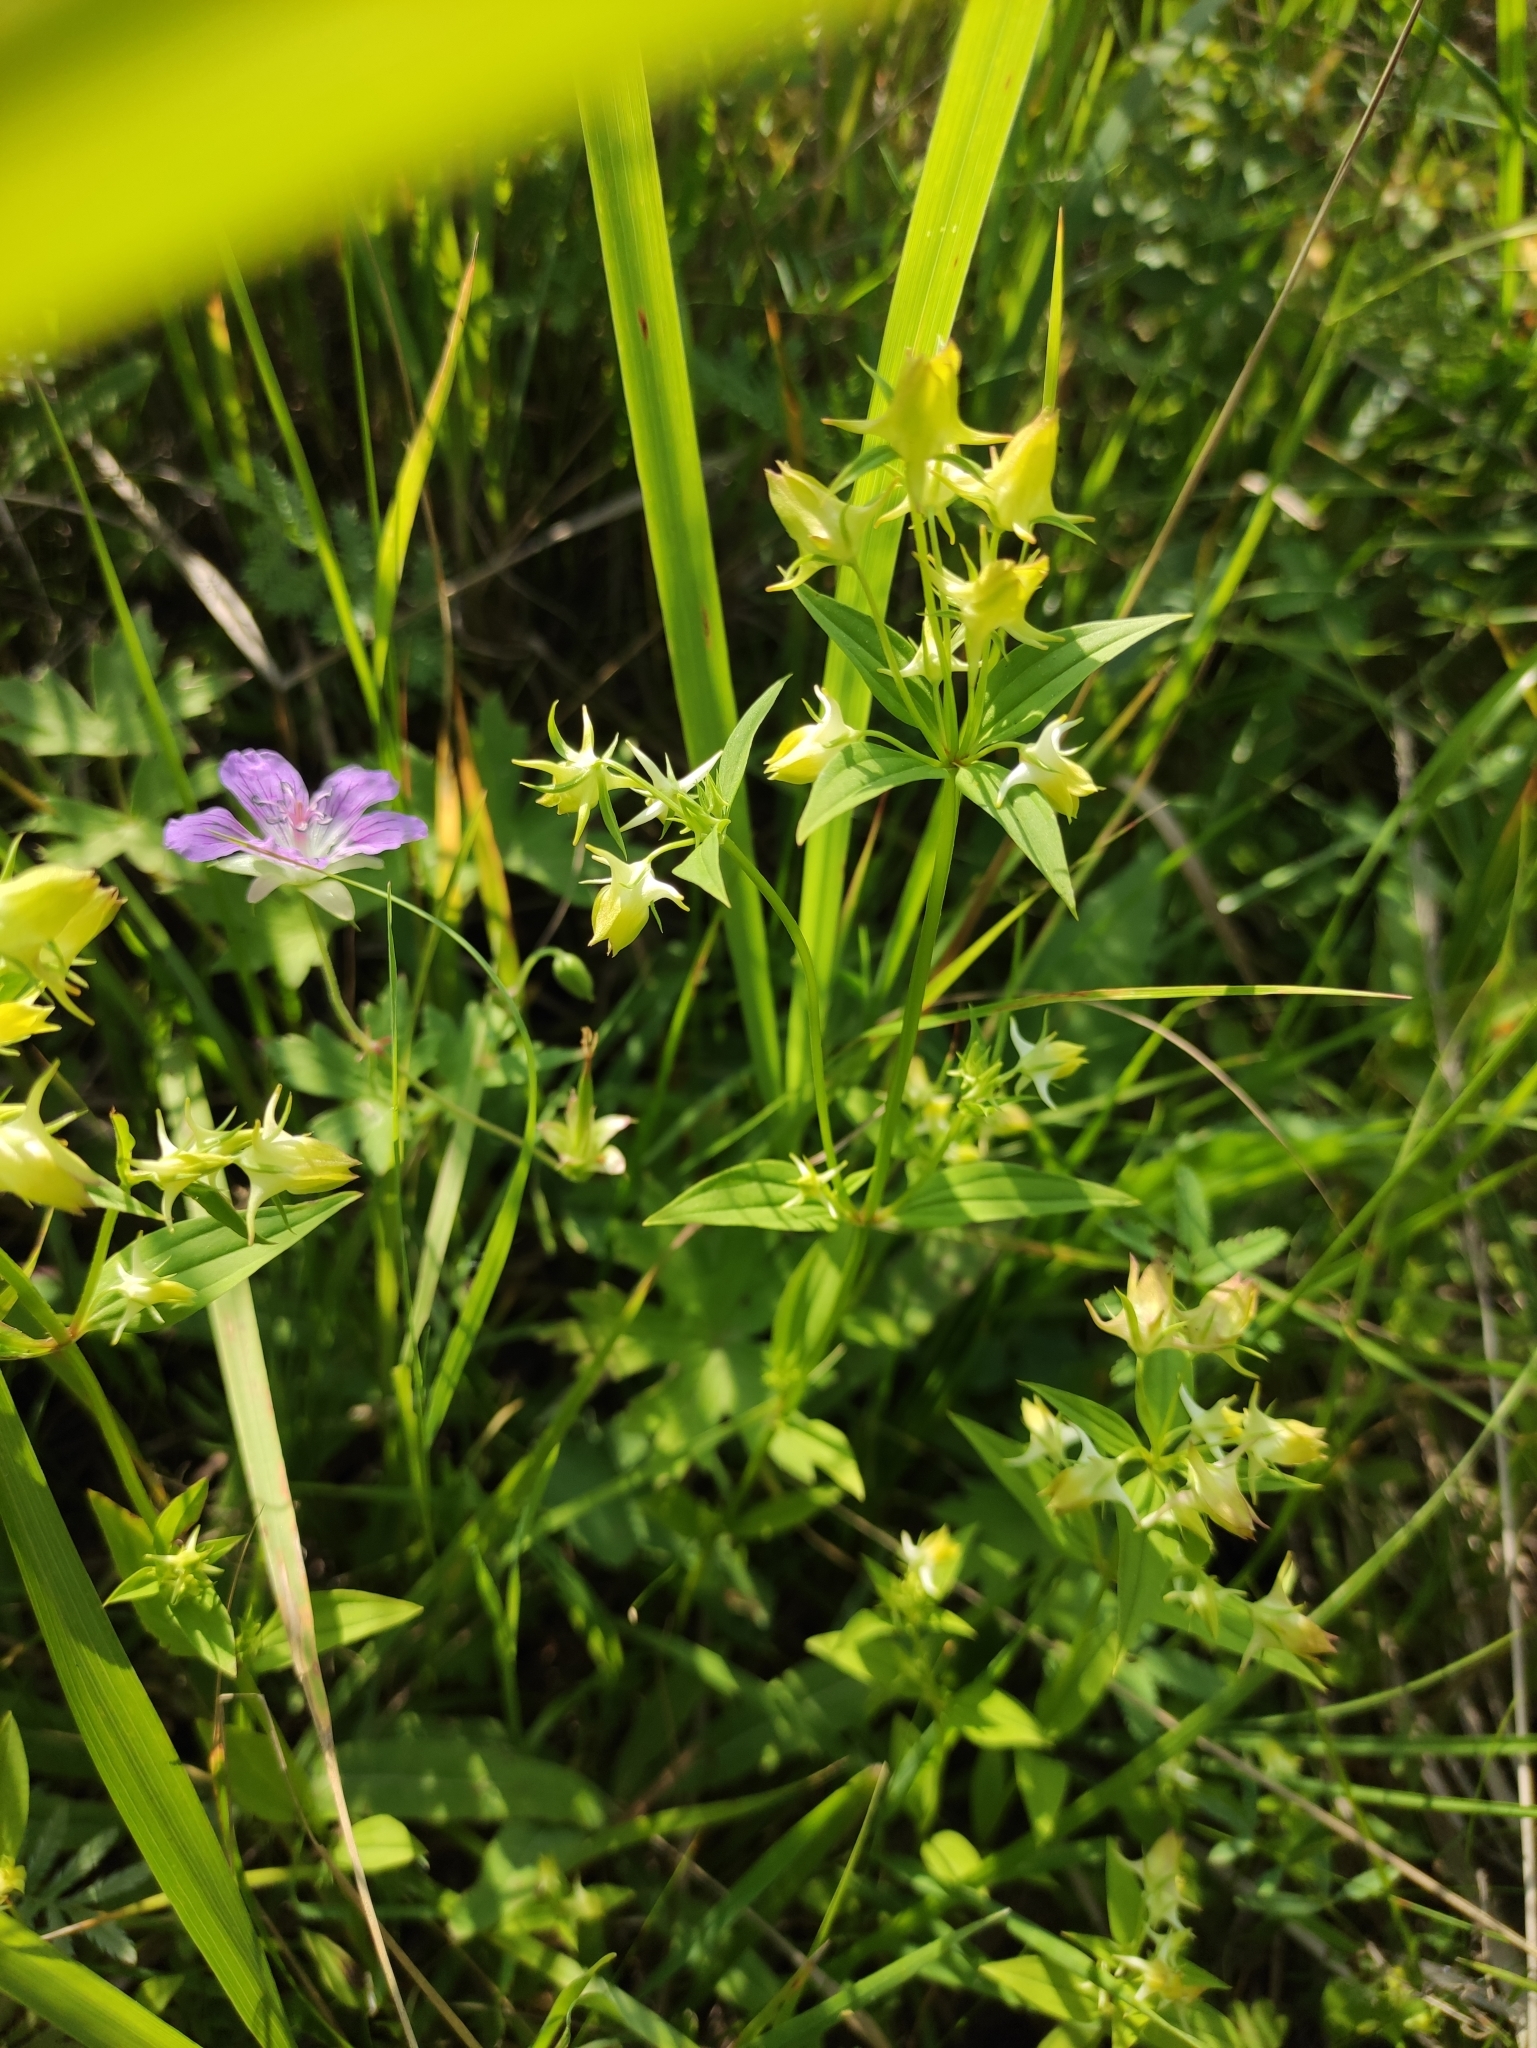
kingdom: Plantae
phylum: Tracheophyta
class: Magnoliopsida
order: Gentianales
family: Gentianaceae
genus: Halenia
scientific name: Halenia corniculata
